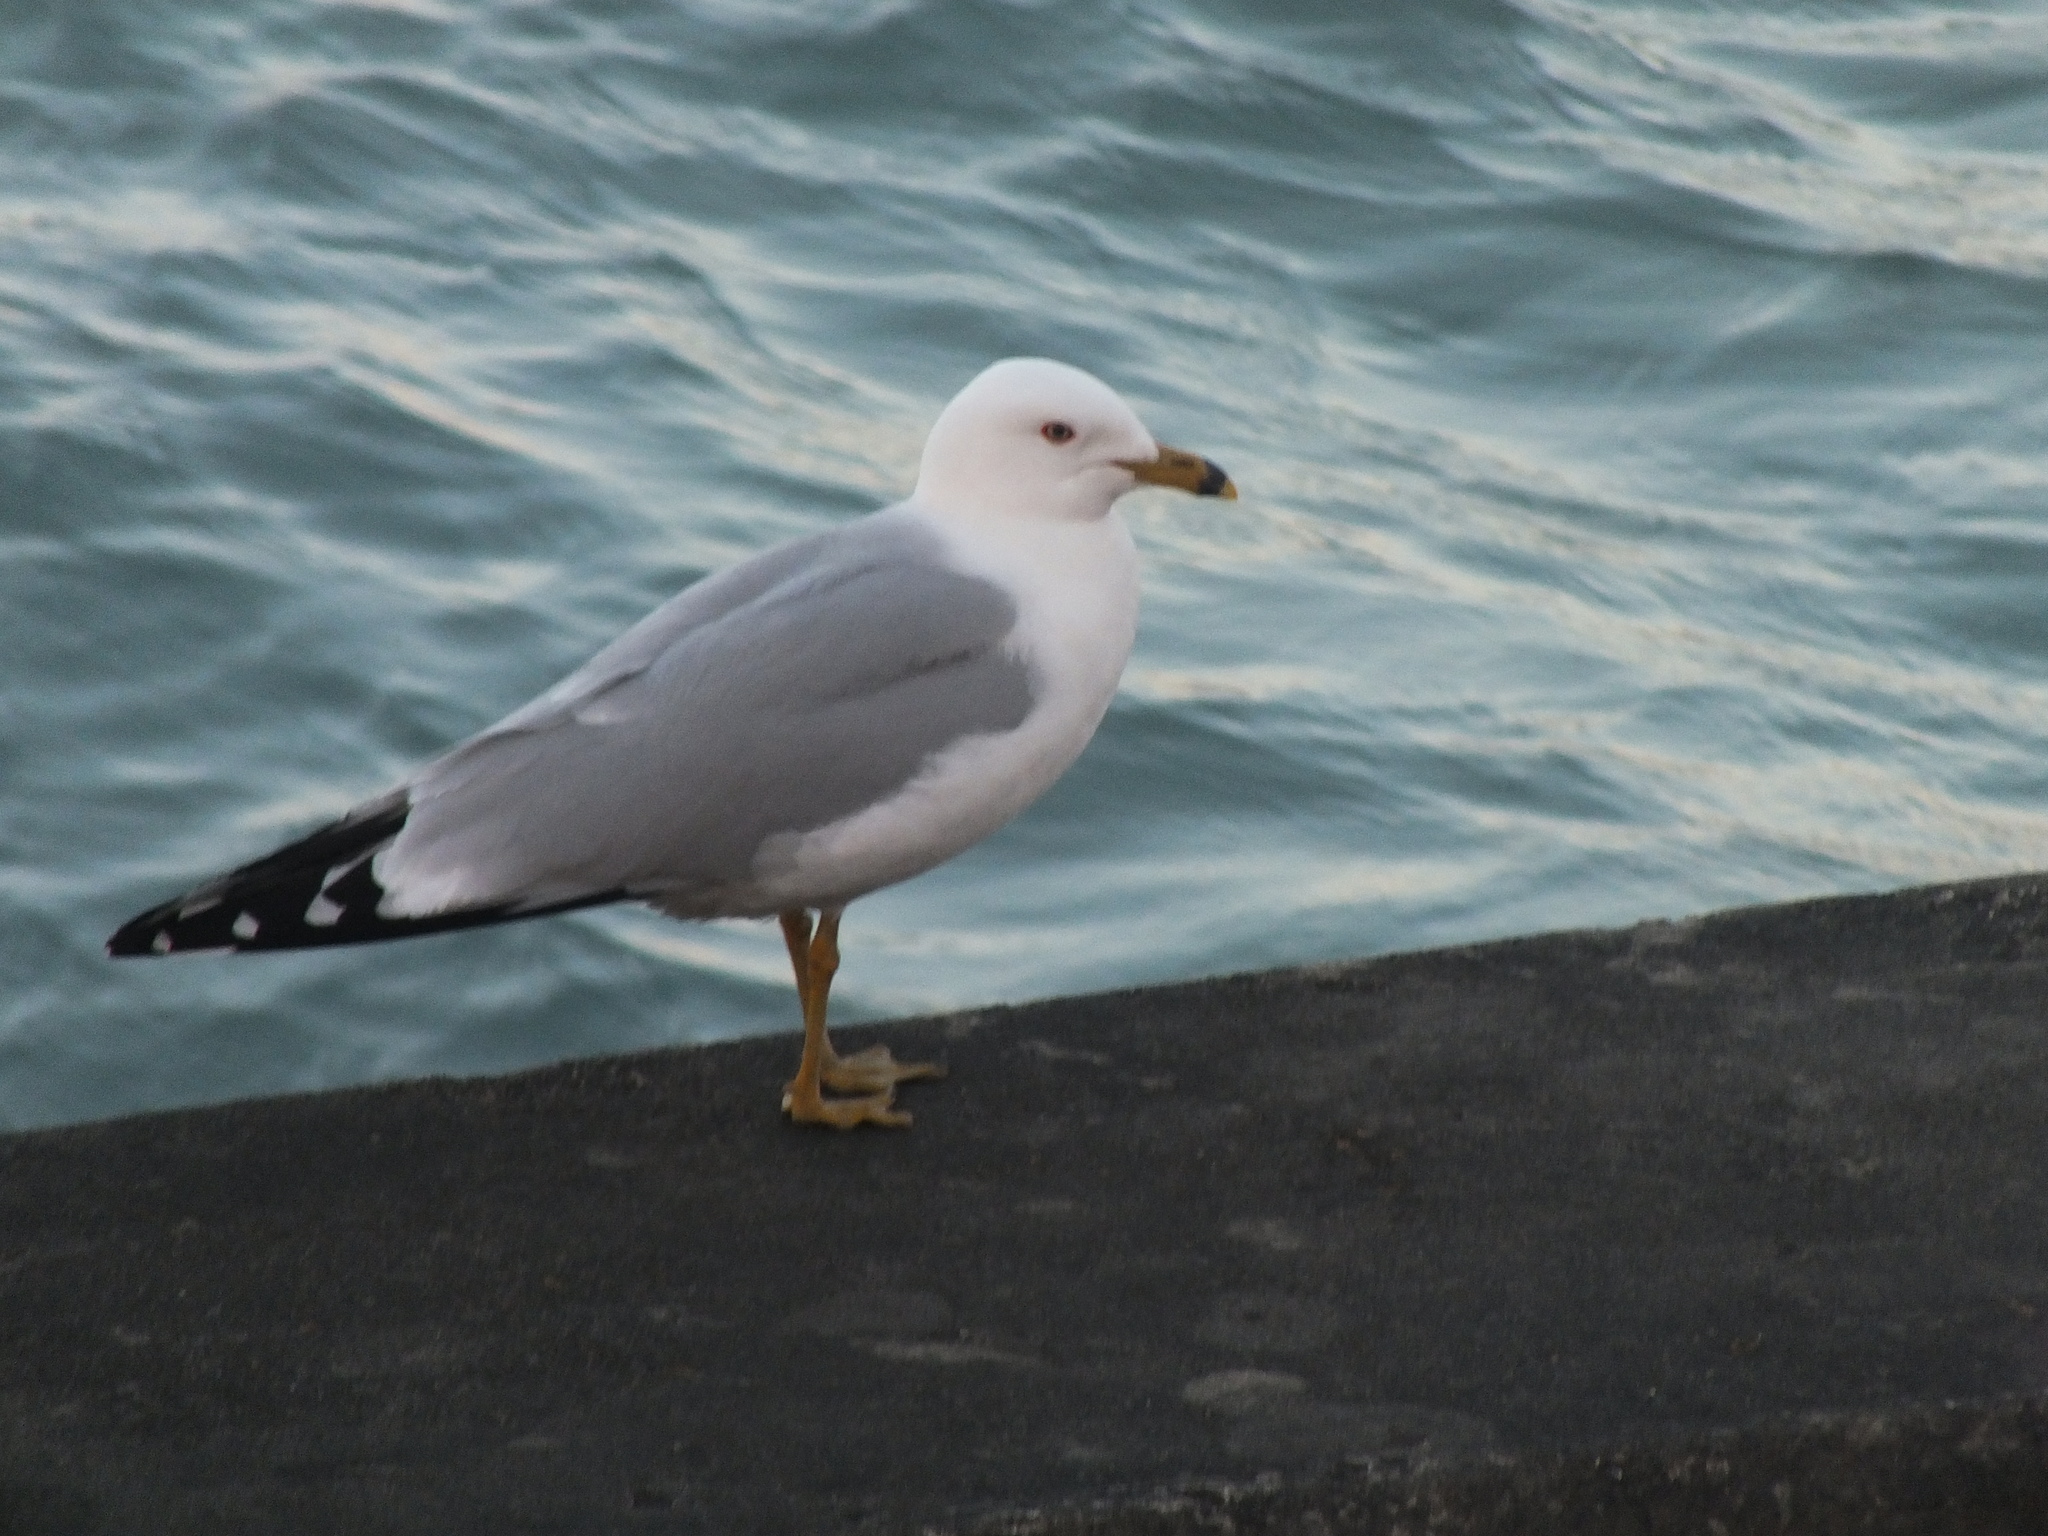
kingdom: Animalia
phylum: Chordata
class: Aves
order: Charadriiformes
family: Laridae
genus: Larus
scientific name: Larus delawarensis
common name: Ring-billed gull
